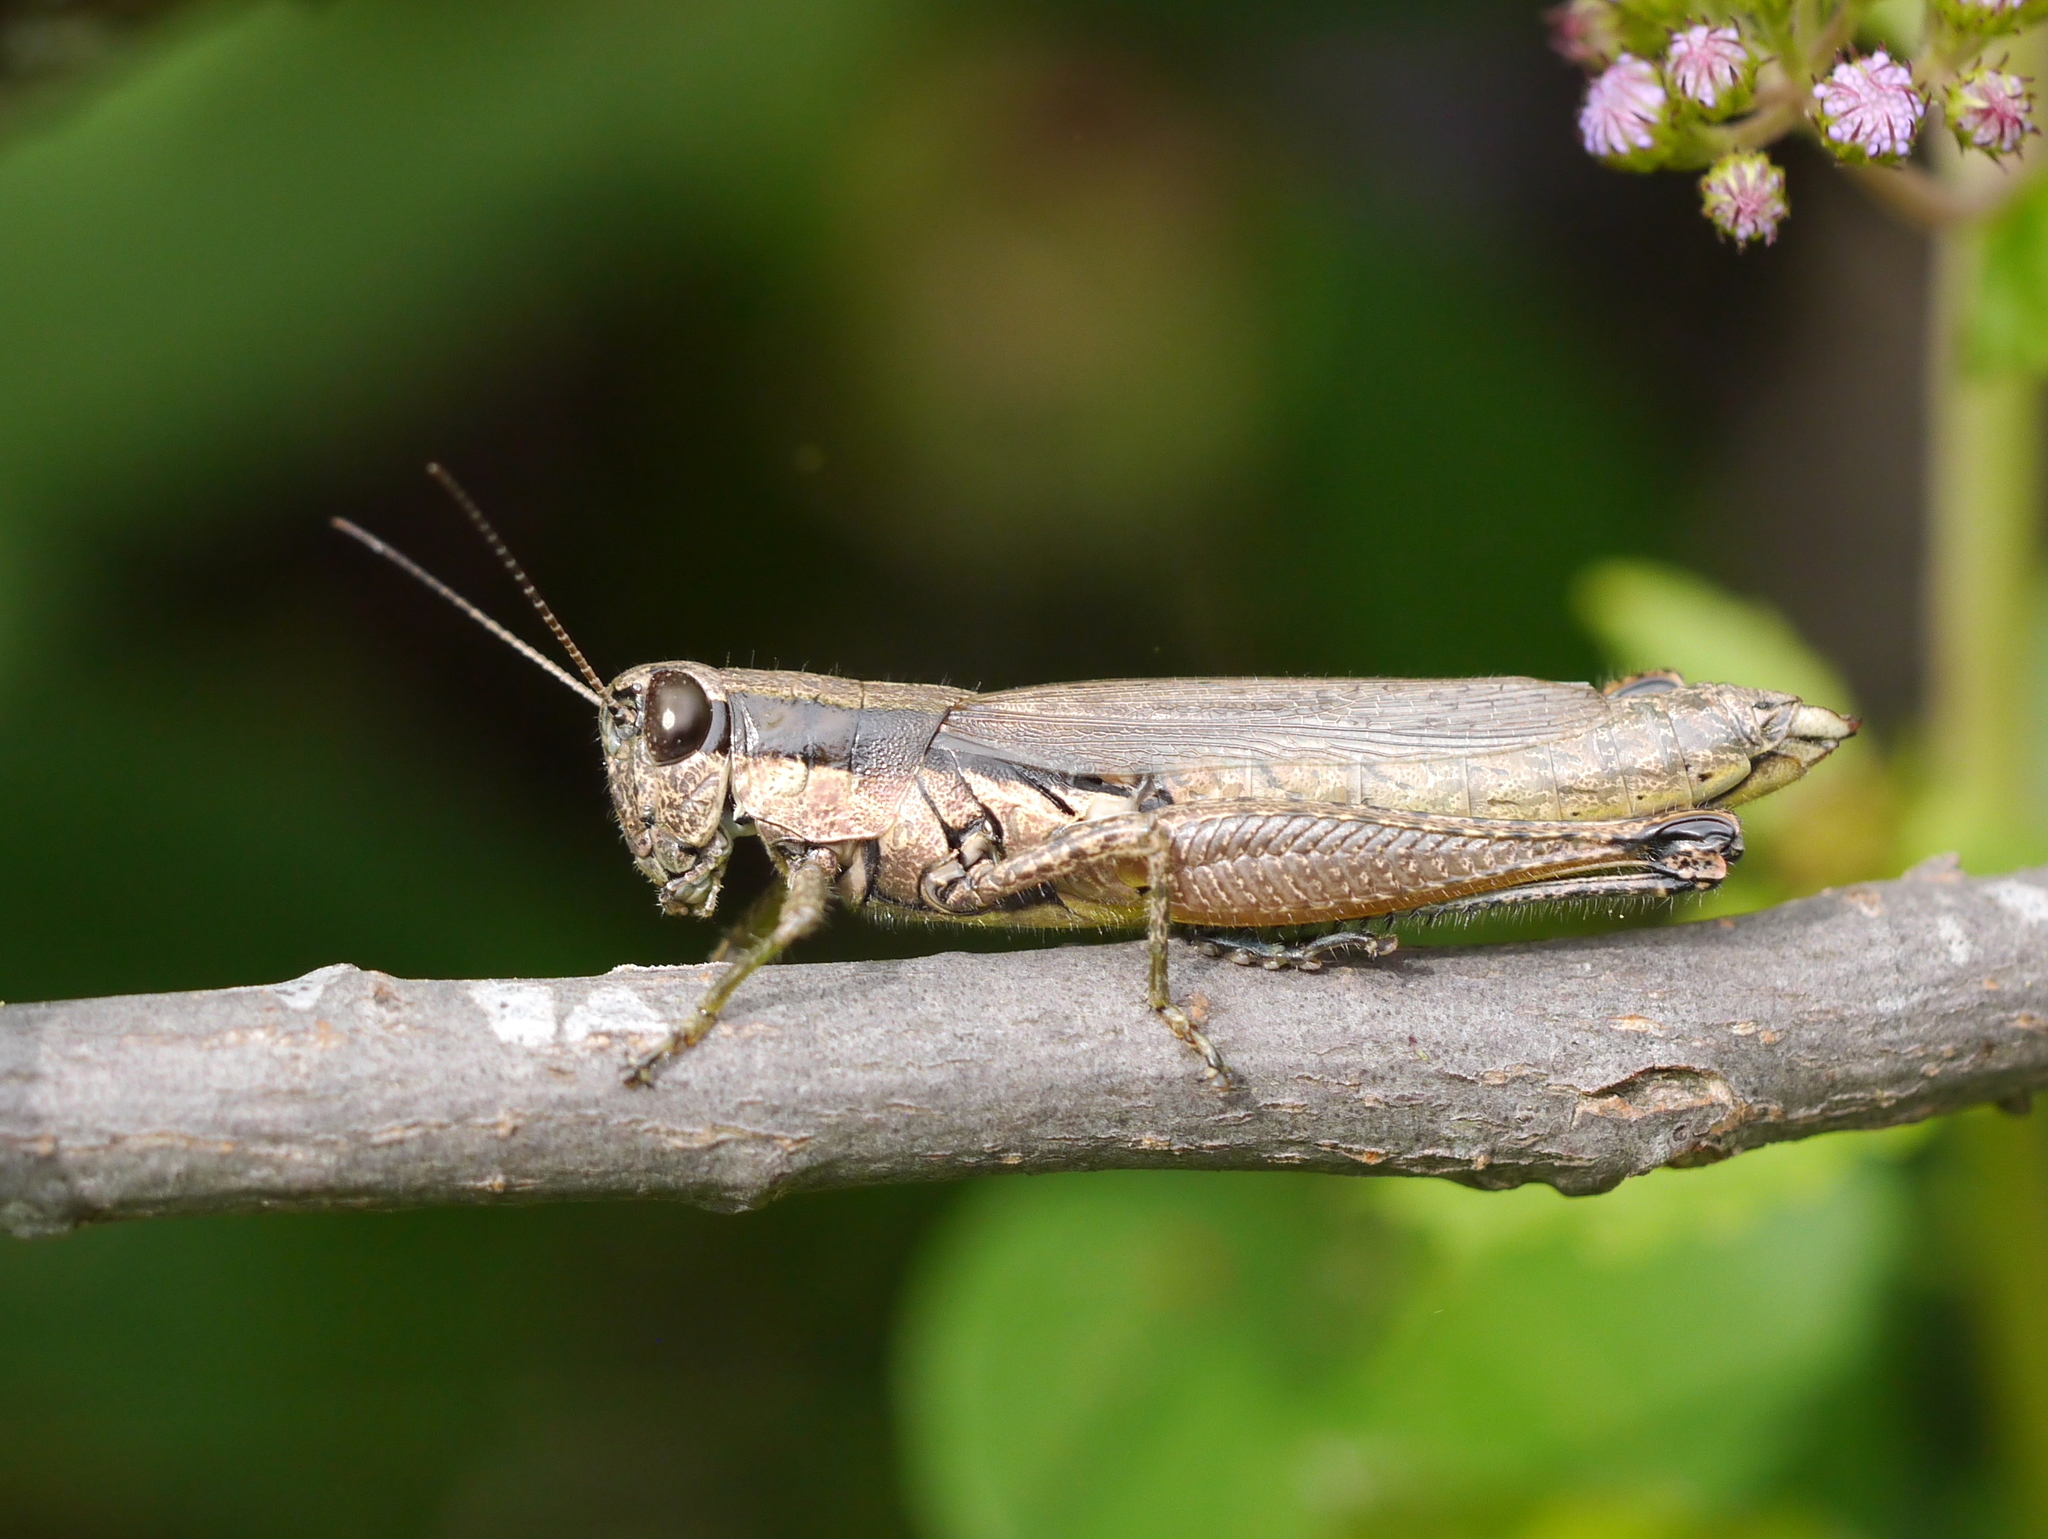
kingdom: Animalia
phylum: Arthropoda
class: Insecta
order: Orthoptera
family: Acrididae
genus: Paroxya
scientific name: Paroxya clavuligera
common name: Olive-green swamp grasshopper
